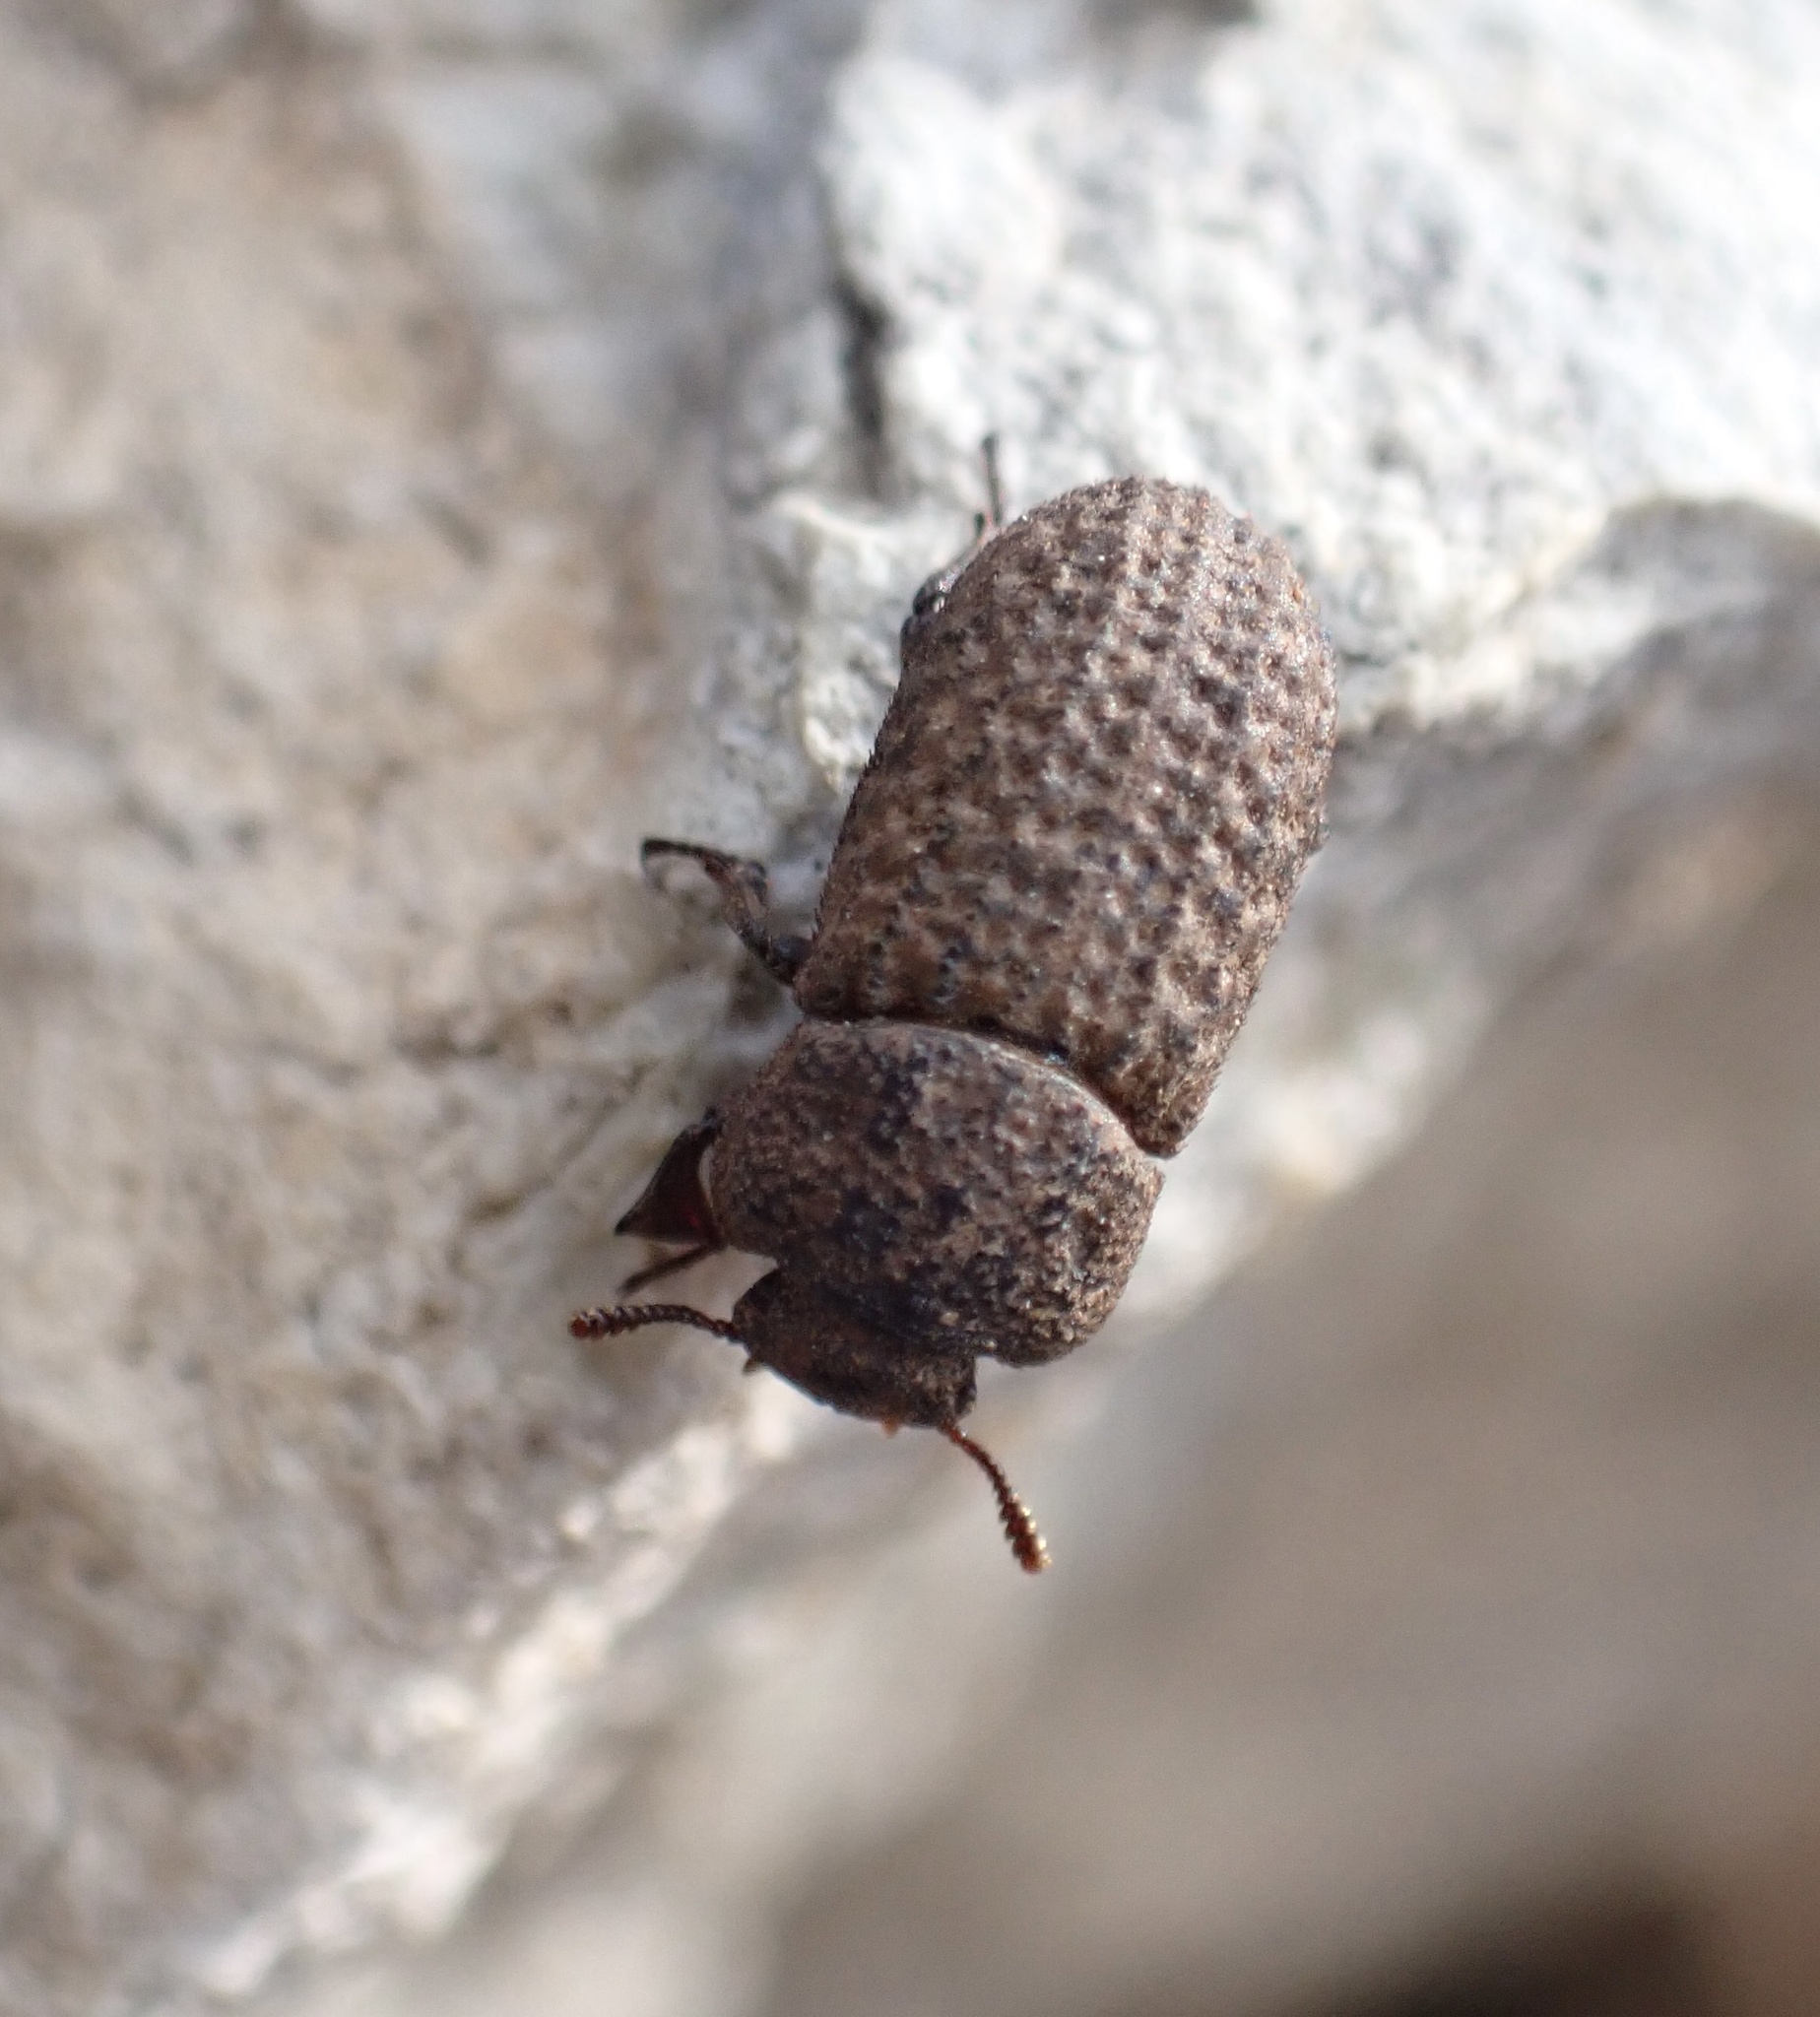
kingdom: Animalia
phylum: Arthropoda
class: Insecta
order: Coleoptera
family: Tenebrionidae
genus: Polycoelogastridium
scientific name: Polycoelogastridium sexcostatum
